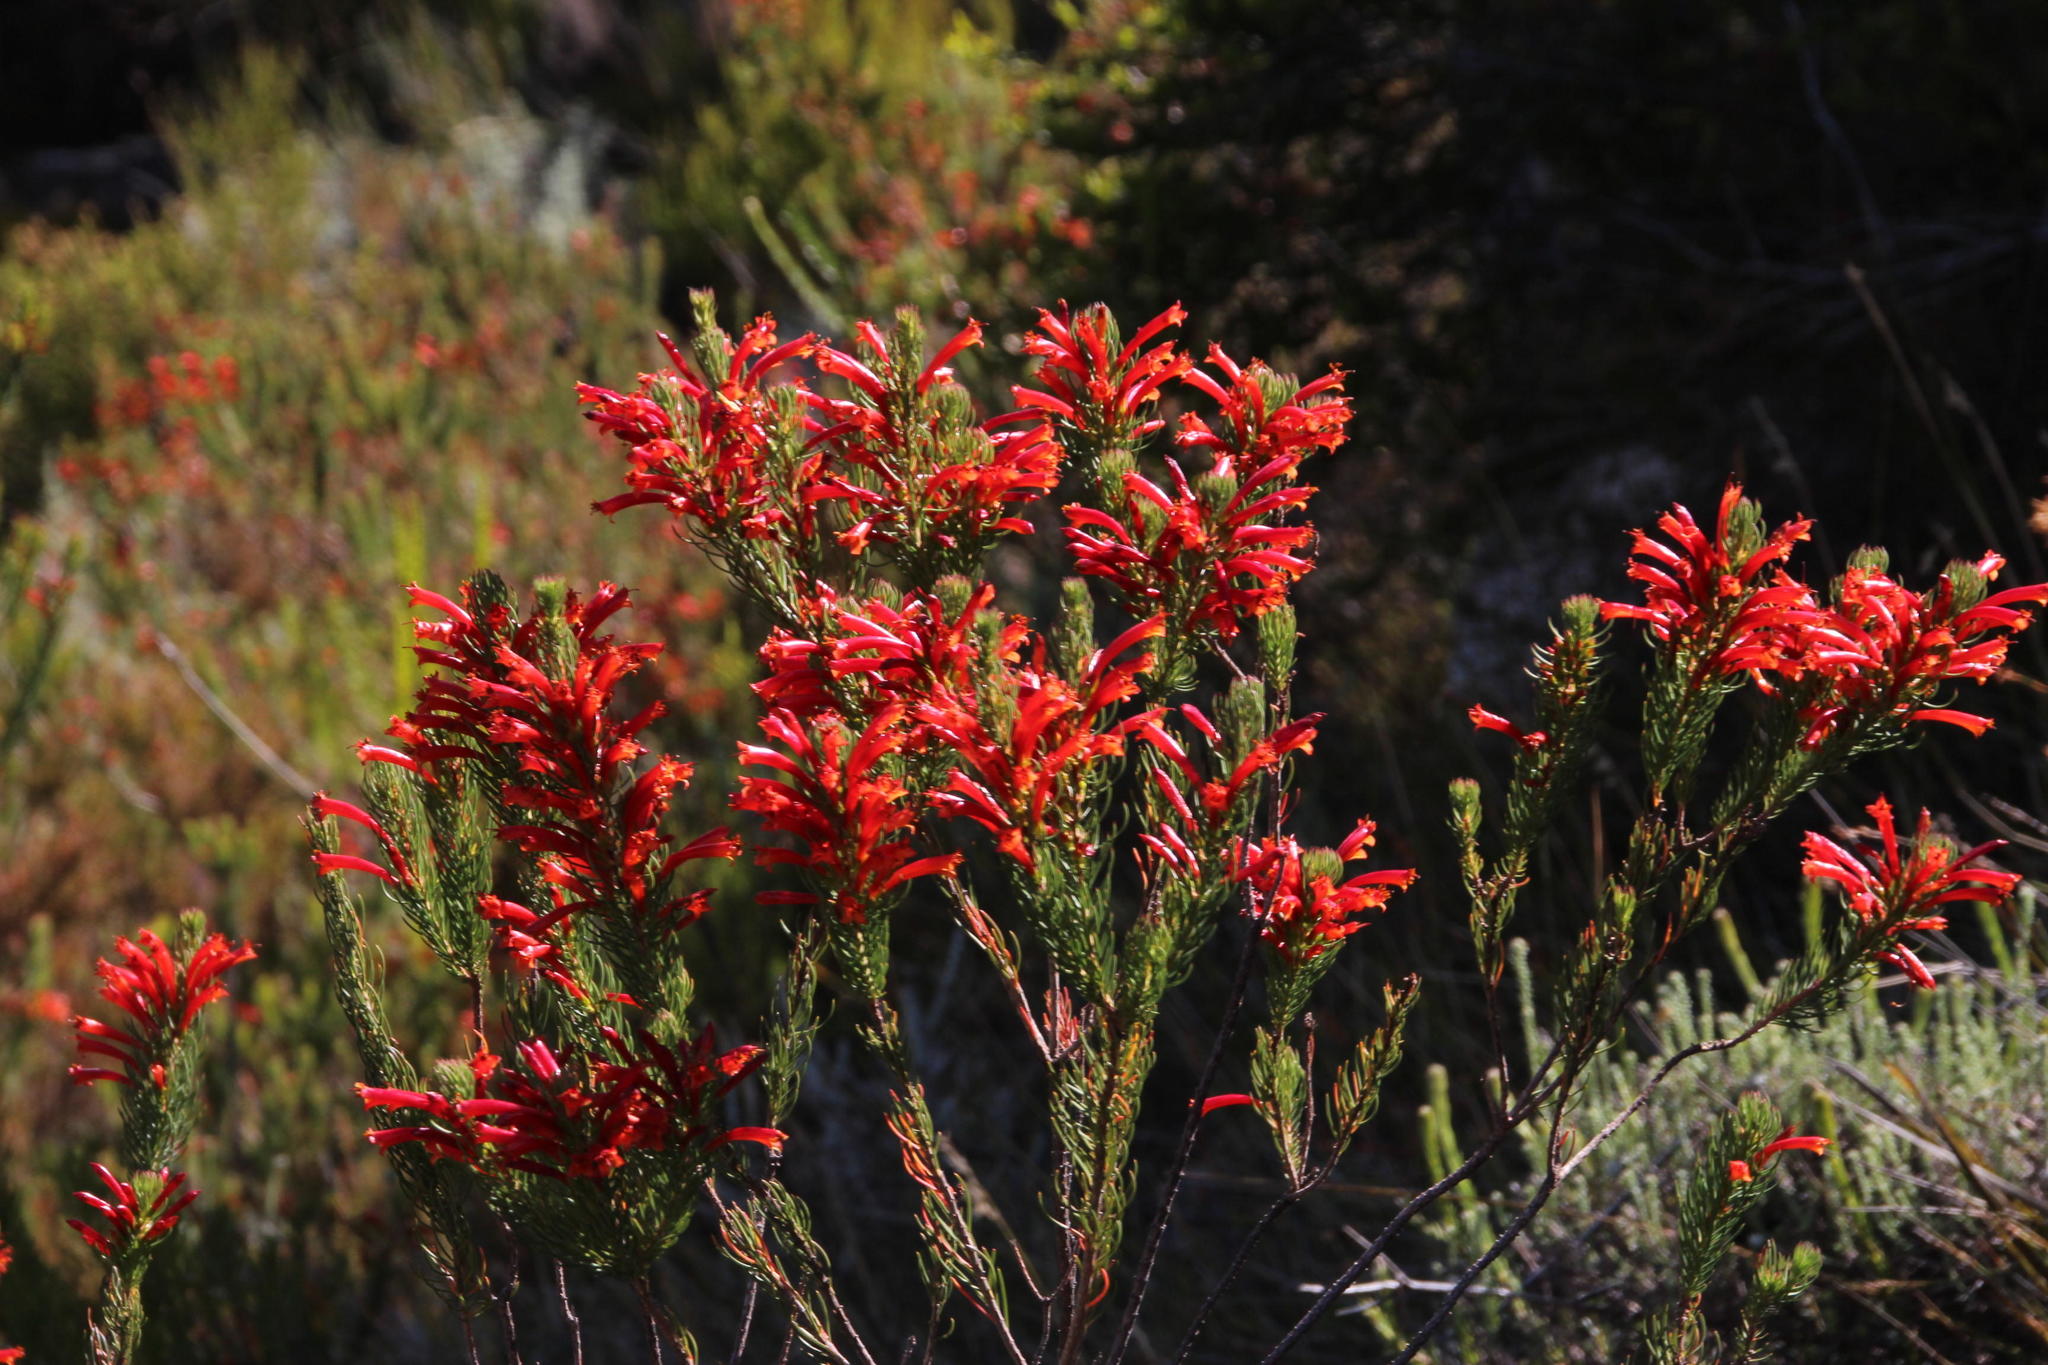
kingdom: Plantae
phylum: Tracheophyta
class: Magnoliopsida
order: Ericales
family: Ericaceae
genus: Erica
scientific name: Erica grandiflora
